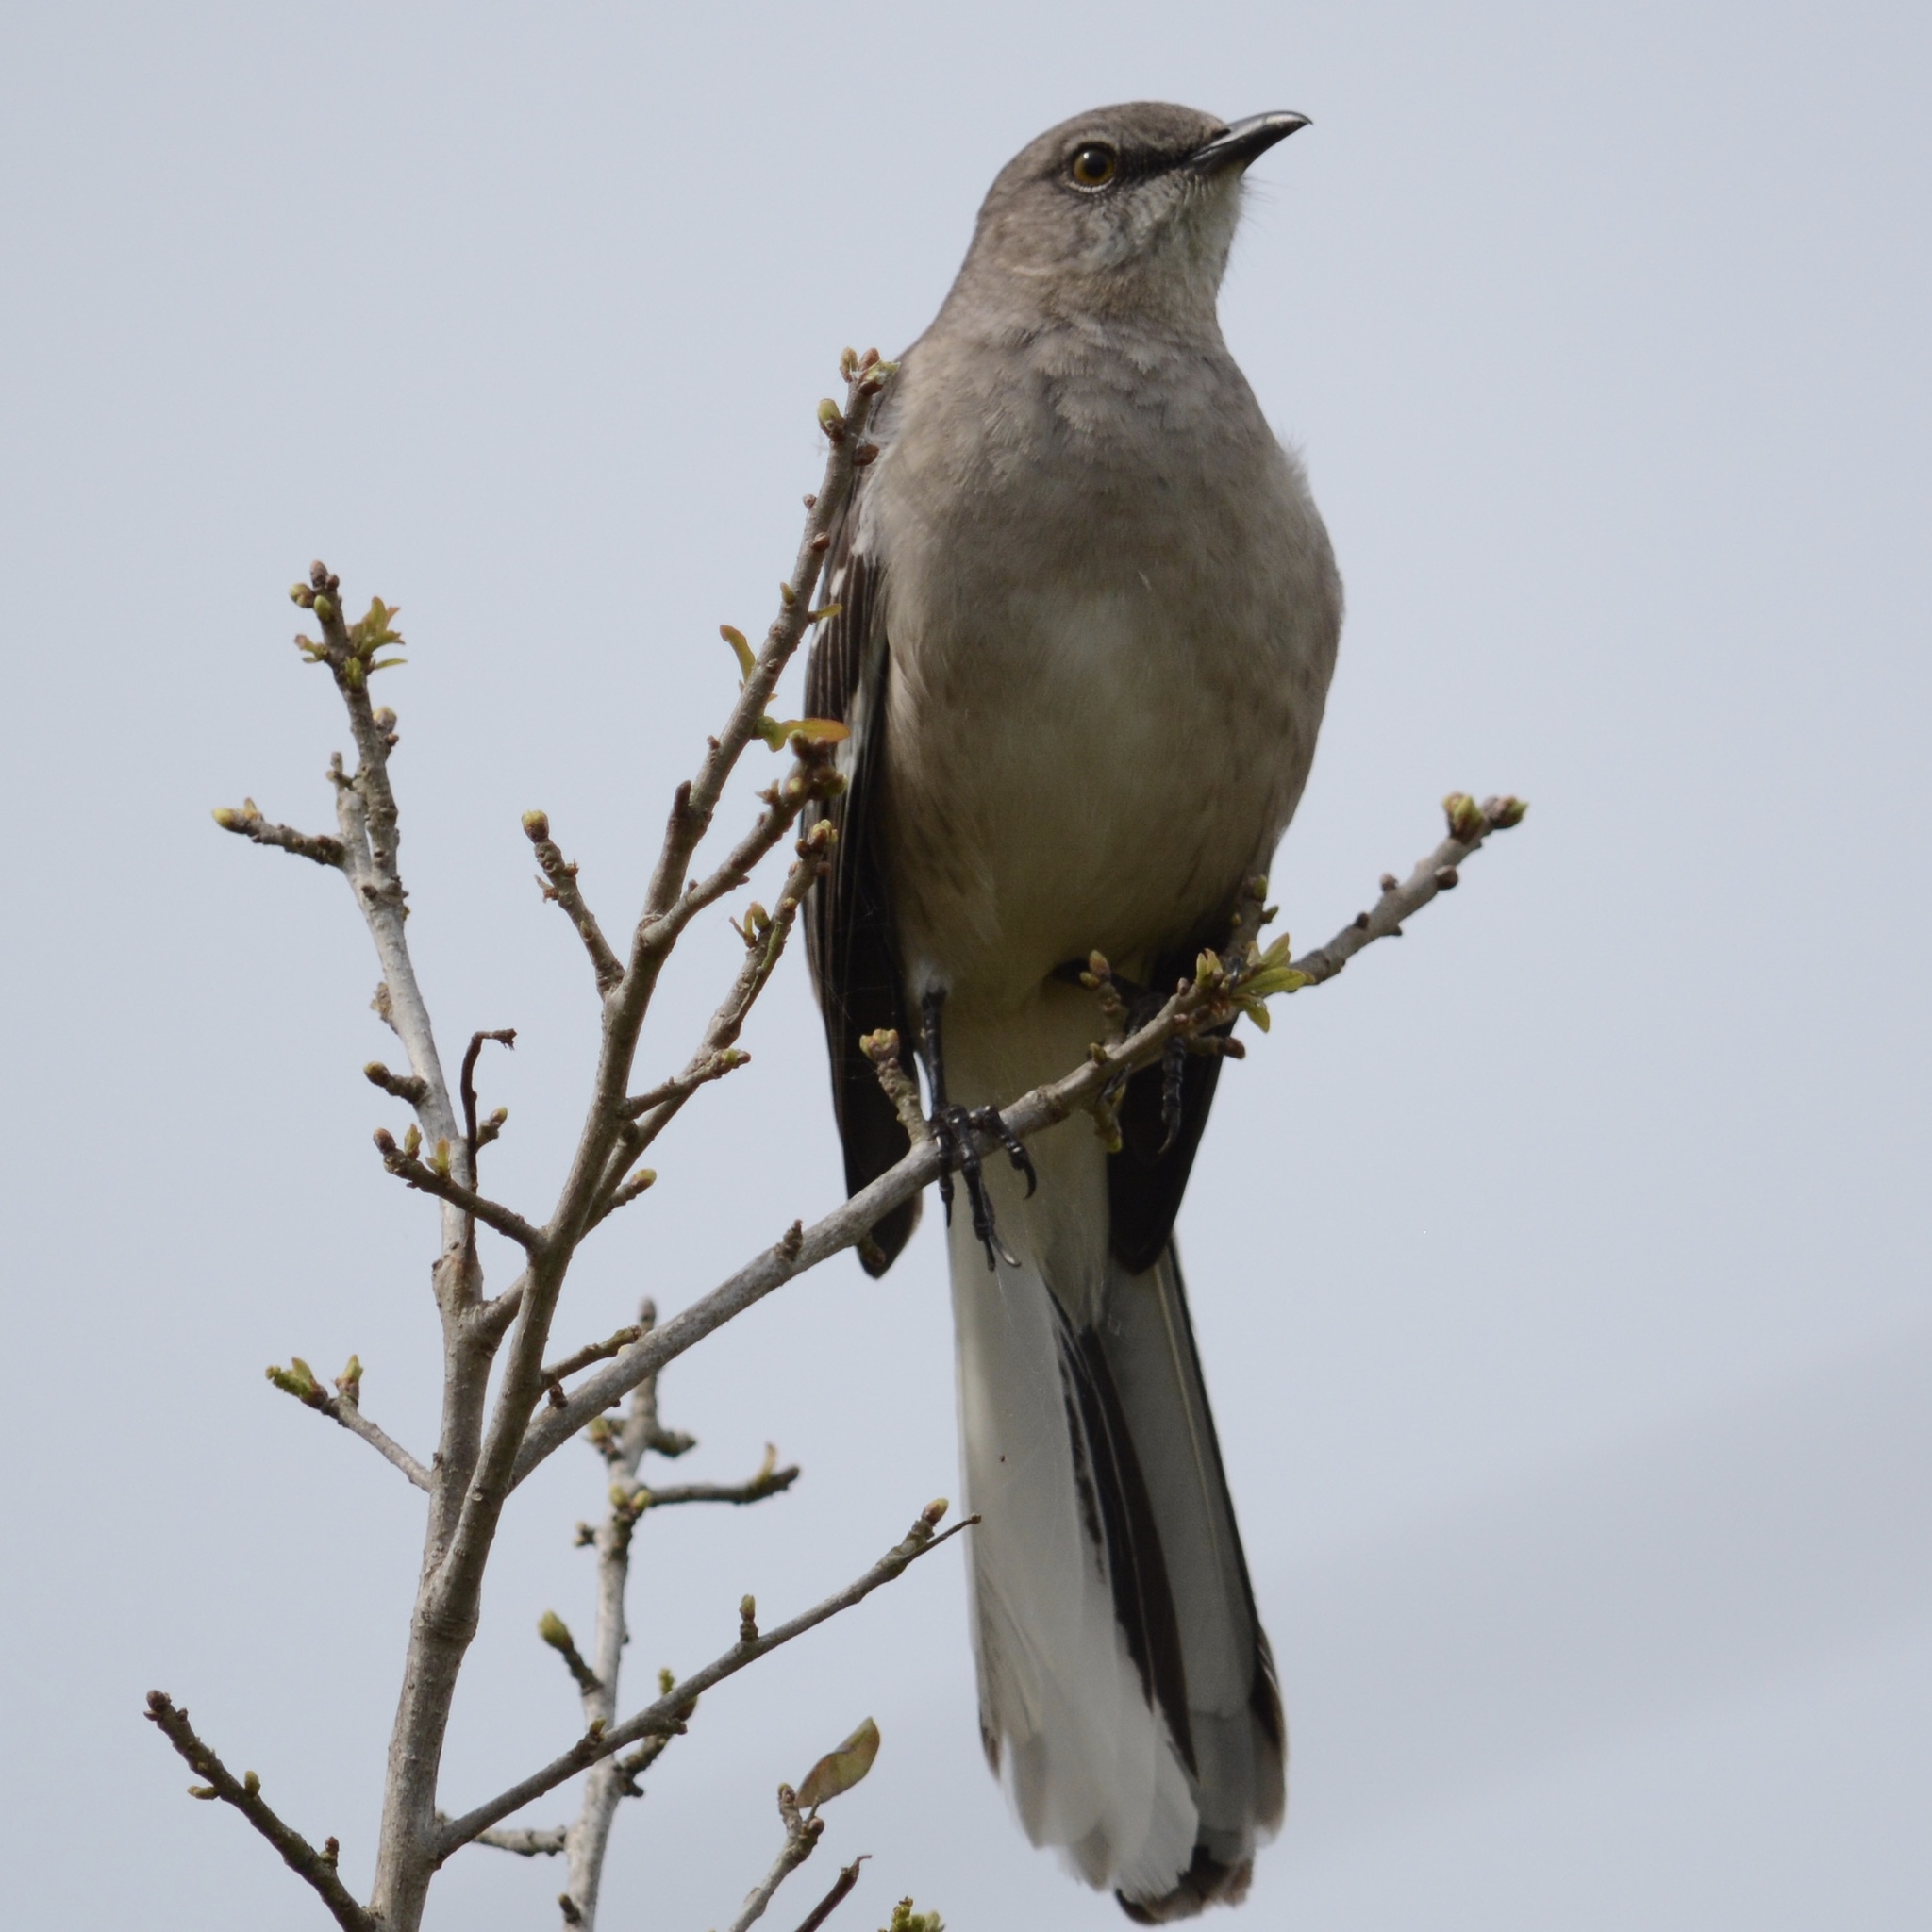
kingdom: Animalia
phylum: Chordata
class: Aves
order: Passeriformes
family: Mimidae
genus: Mimus
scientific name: Mimus polyglottos
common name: Northern mockingbird
